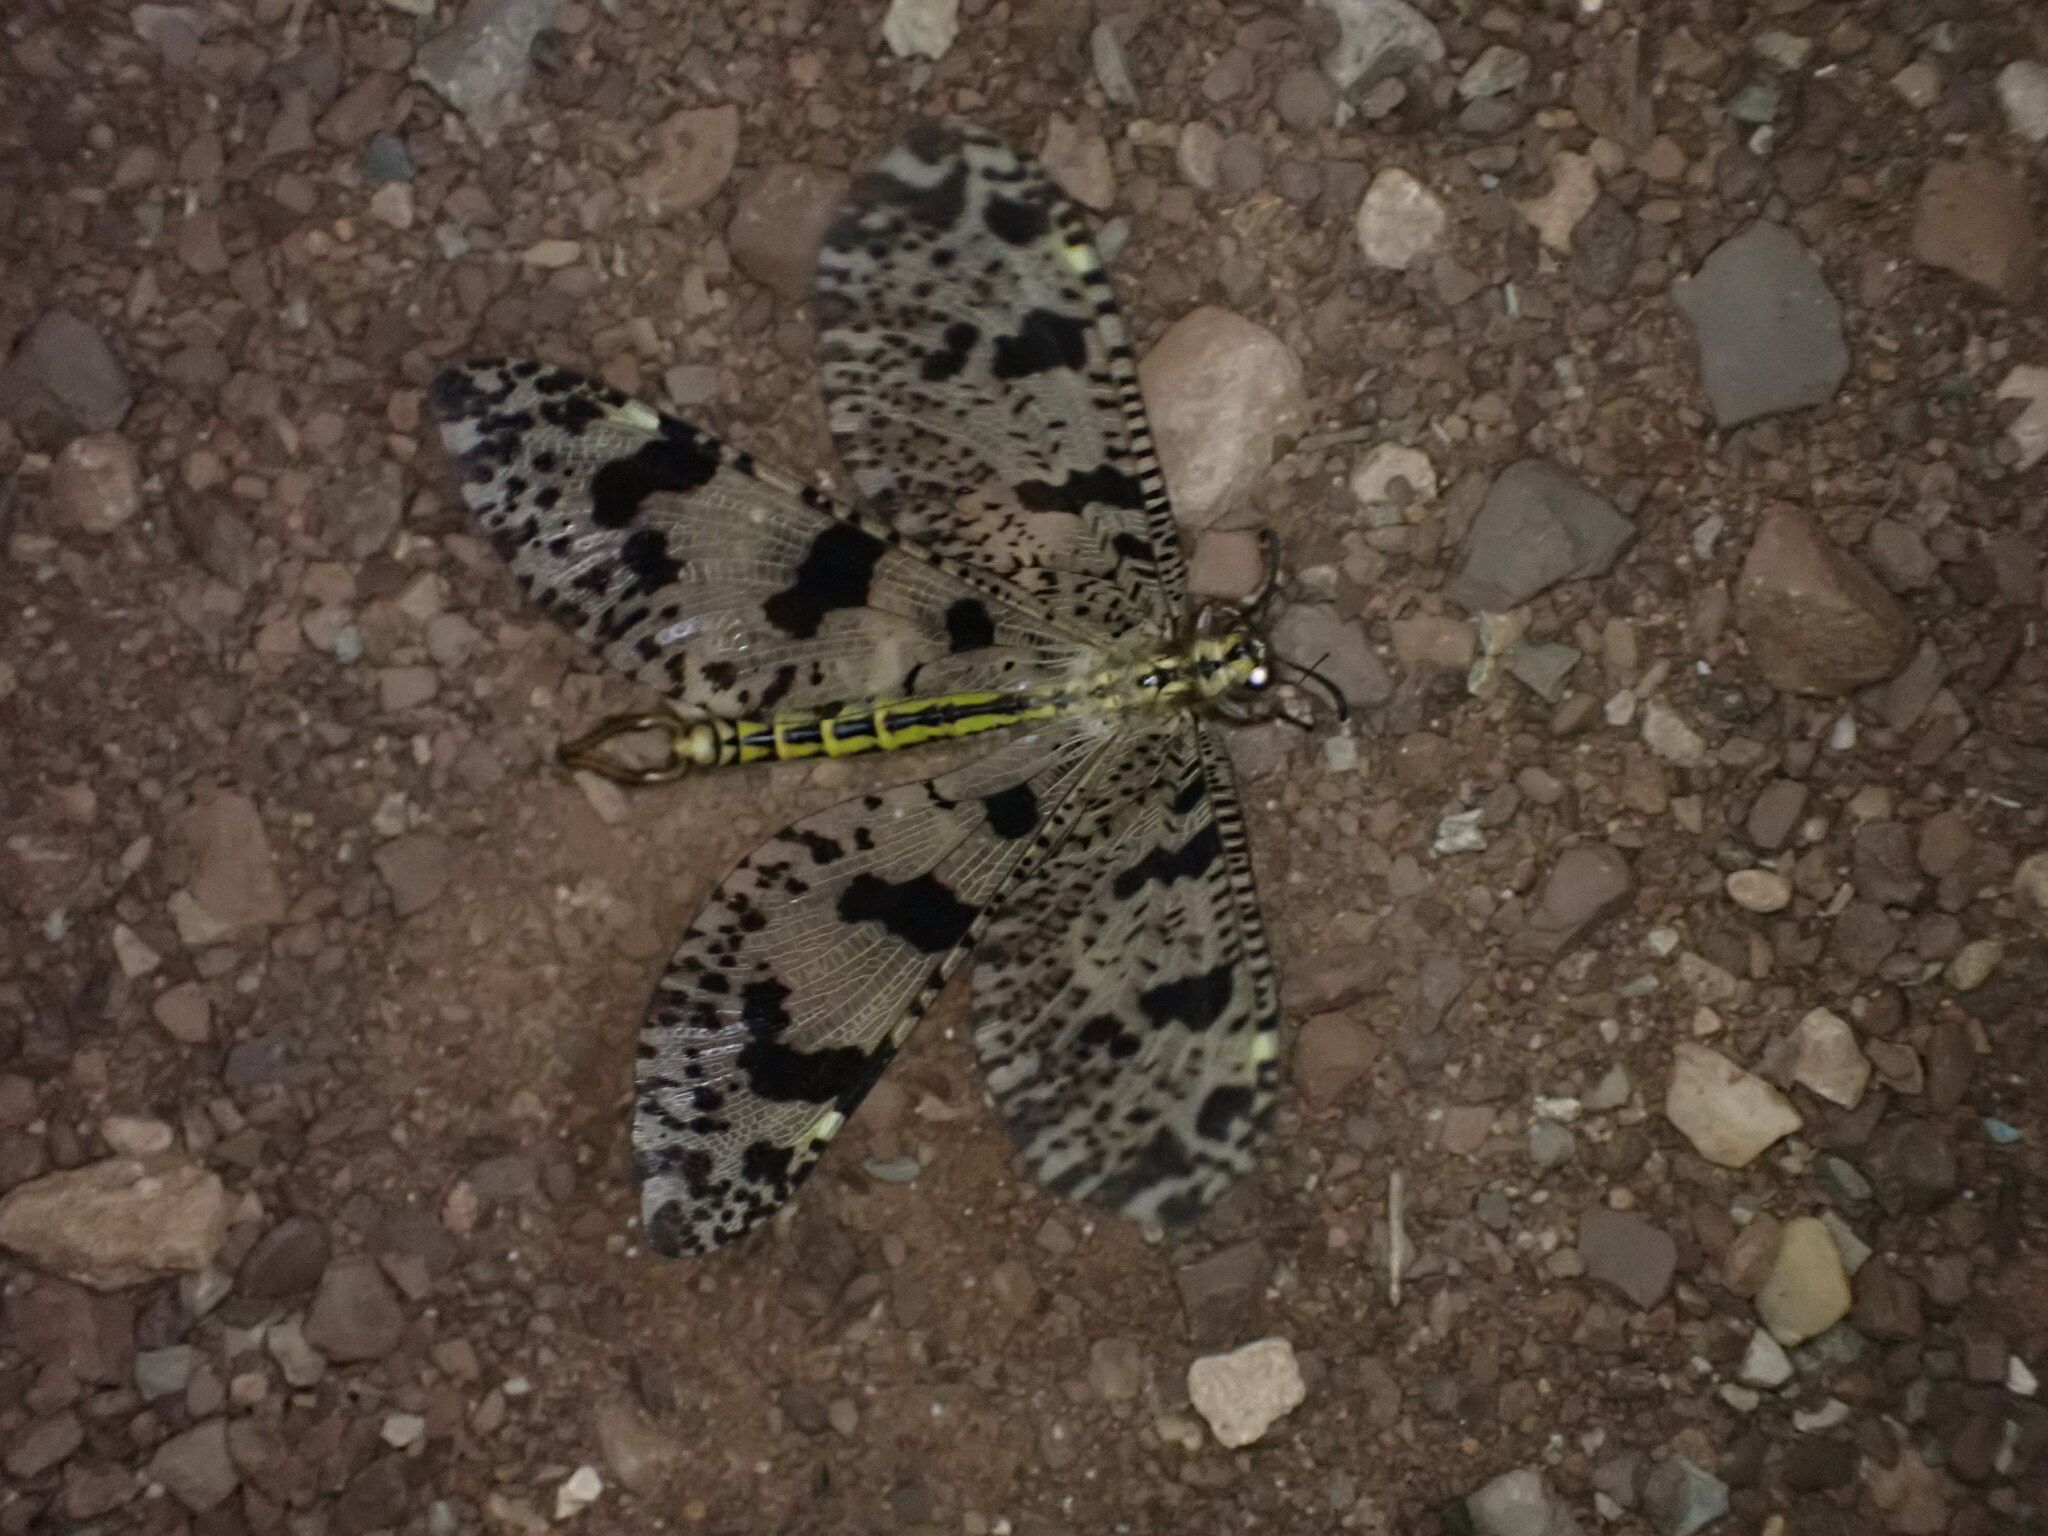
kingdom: Animalia
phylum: Arthropoda
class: Insecta
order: Neuroptera
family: Myrmeleontidae
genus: Palpares
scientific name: Palpares libelluloides
